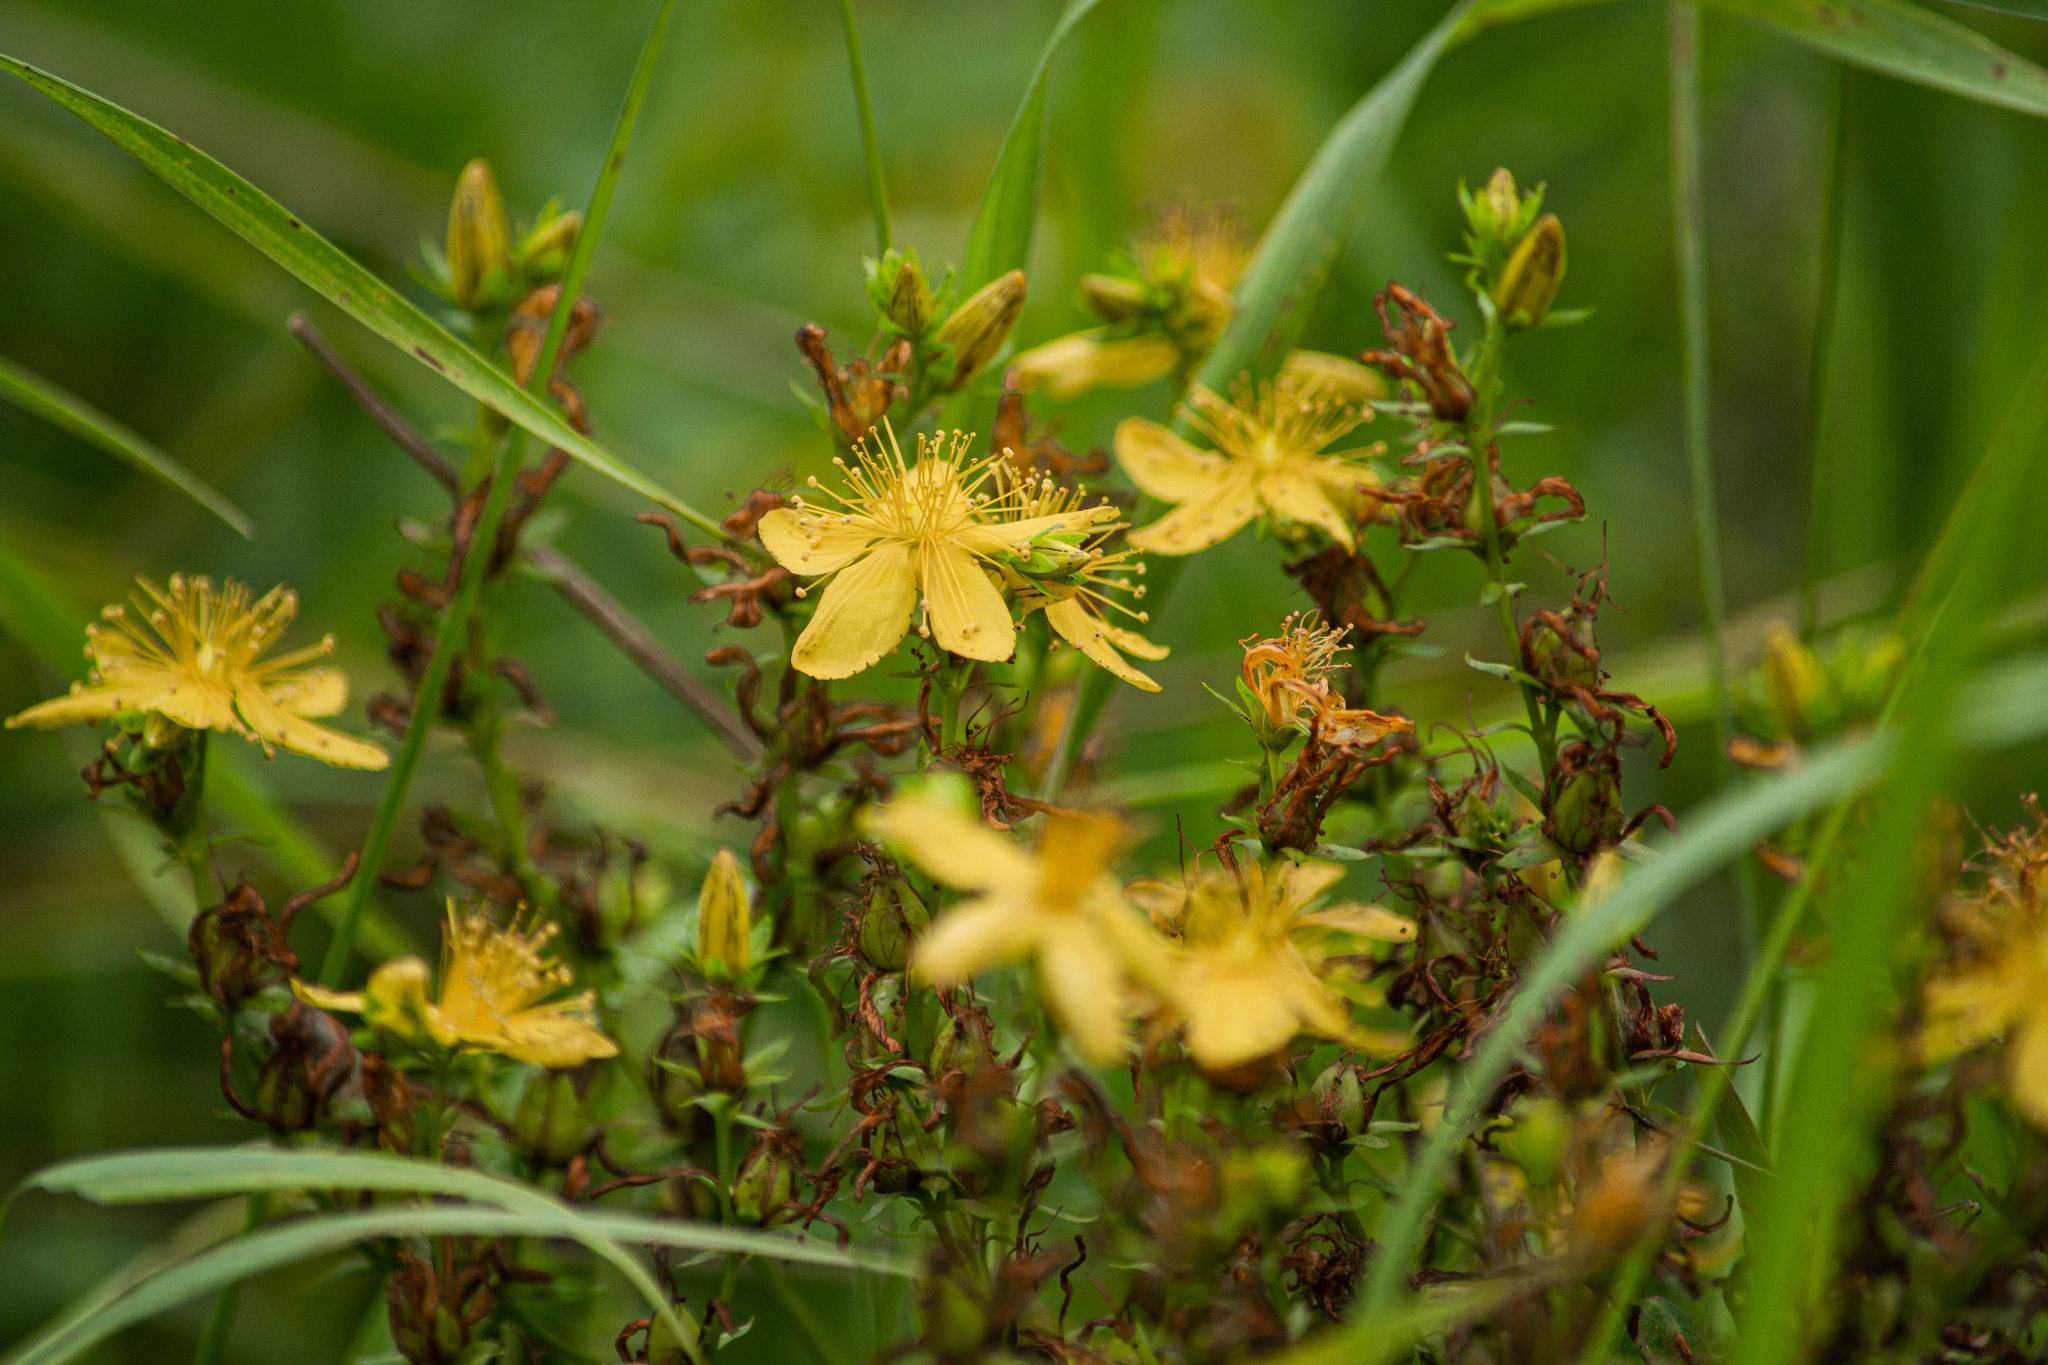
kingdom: Plantae
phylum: Tracheophyta
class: Magnoliopsida
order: Malpighiales
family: Hypericaceae
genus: Hypericum
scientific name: Hypericum perforatum
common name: Common st. johnswort
